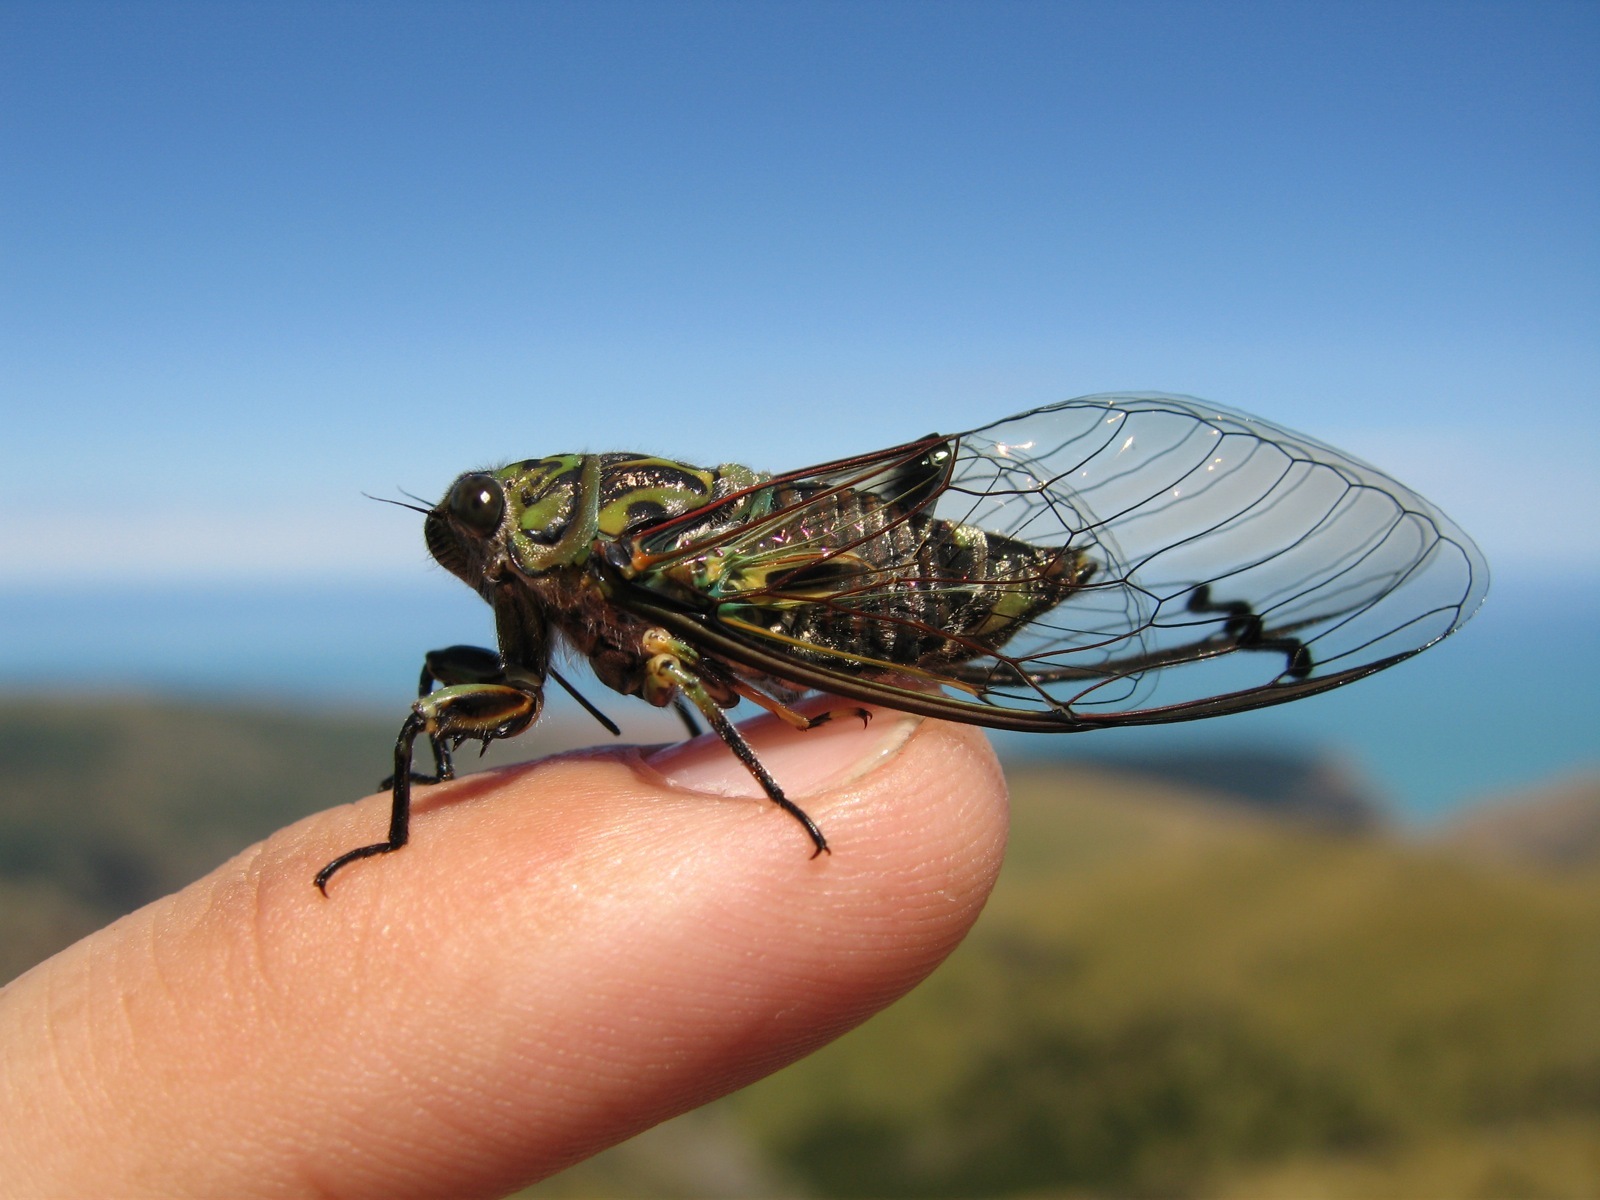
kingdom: Animalia
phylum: Arthropoda
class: Insecta
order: Hemiptera
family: Cicadidae
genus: Amphipsalta
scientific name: Amphipsalta zelandica
